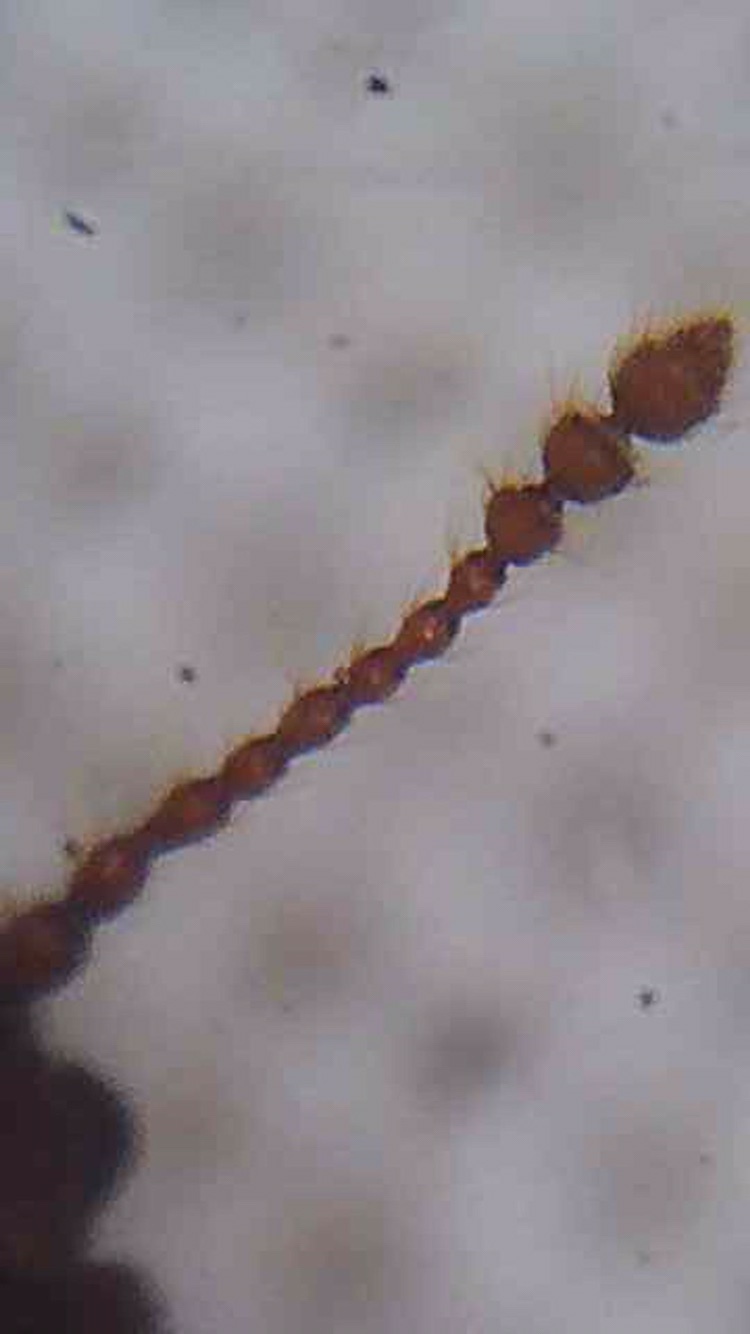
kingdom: Animalia
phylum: Arthropoda
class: Insecta
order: Coleoptera
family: Cryptophagidae
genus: Antarcticotectus
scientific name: Antarcticotectus
